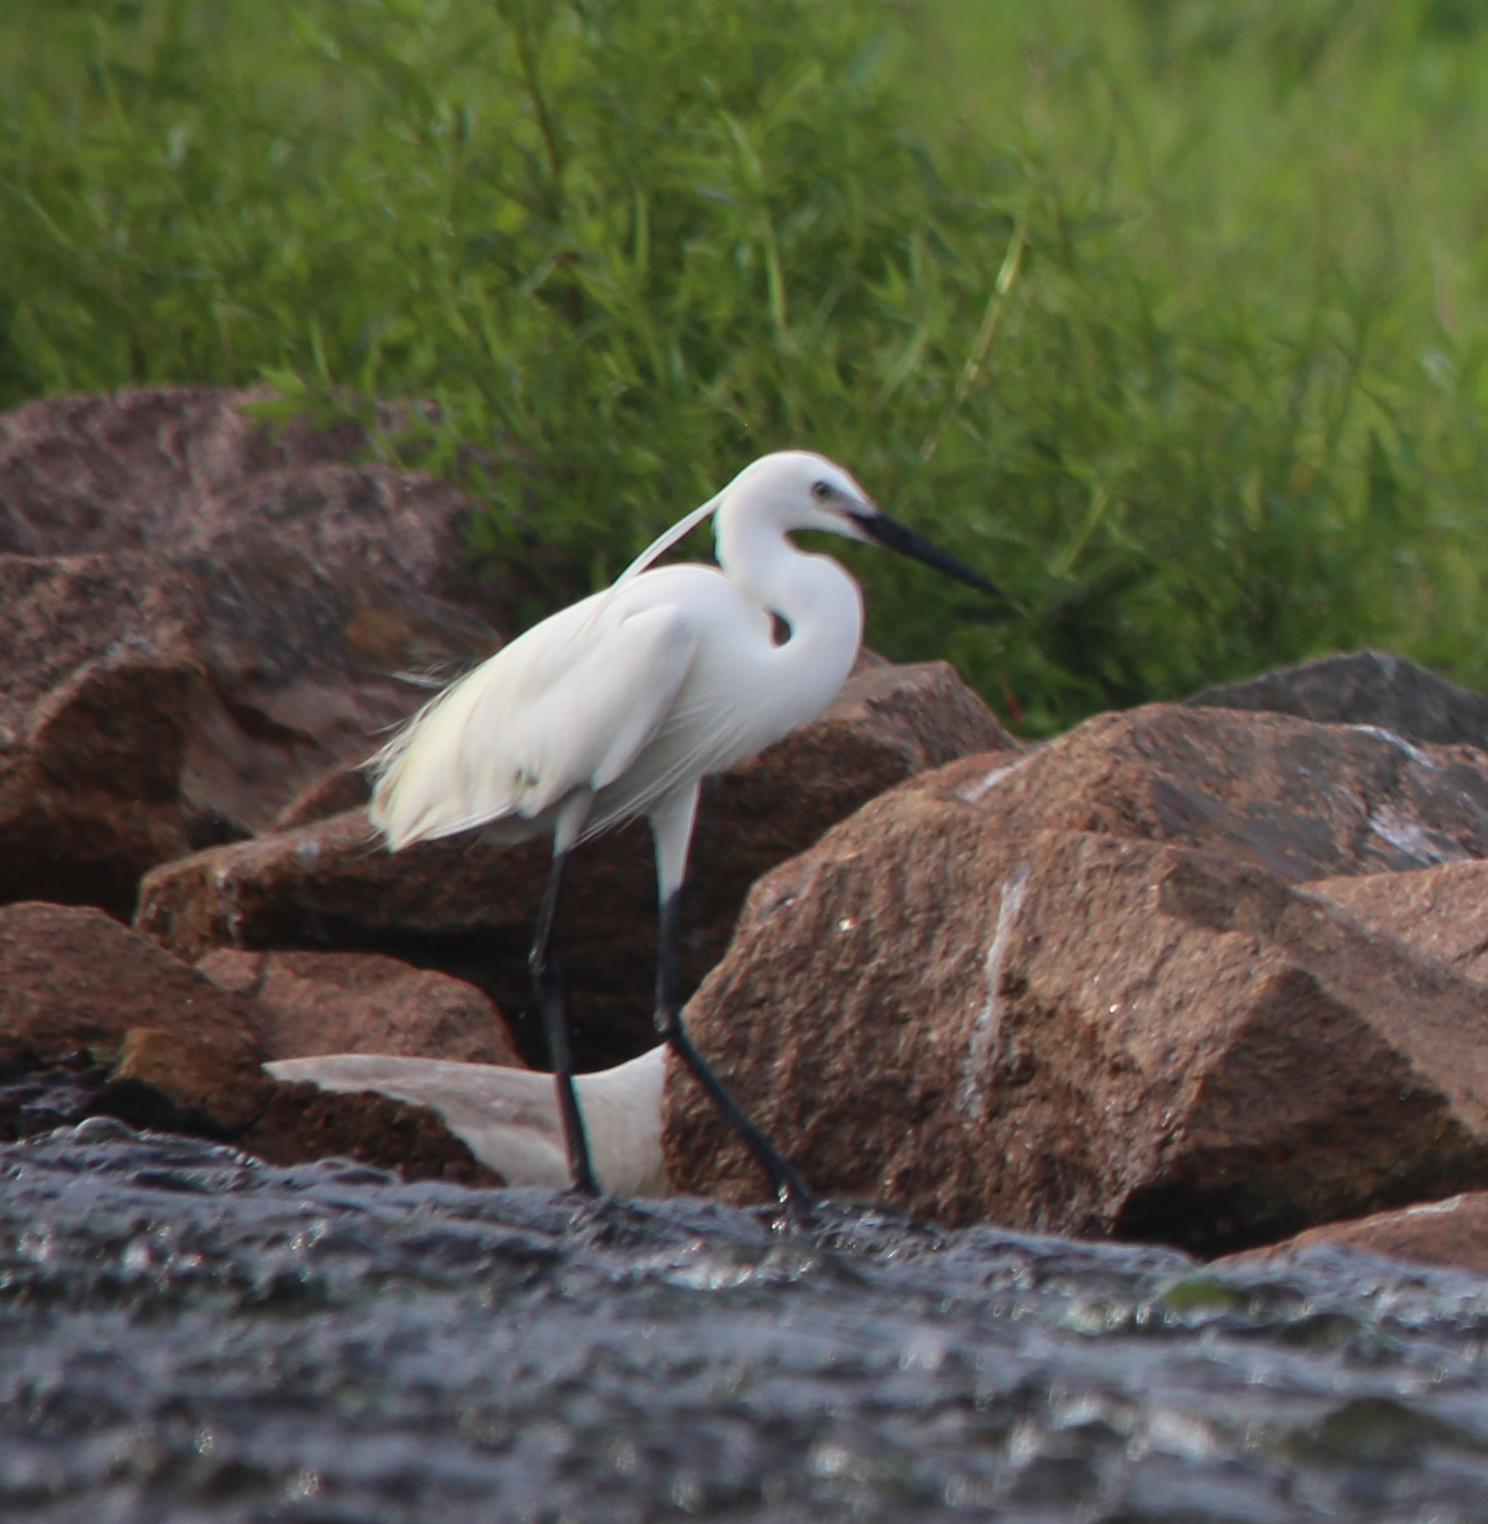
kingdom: Animalia
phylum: Chordata
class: Aves
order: Pelecaniformes
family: Ardeidae
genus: Egretta
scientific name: Egretta garzetta
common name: Little egret
